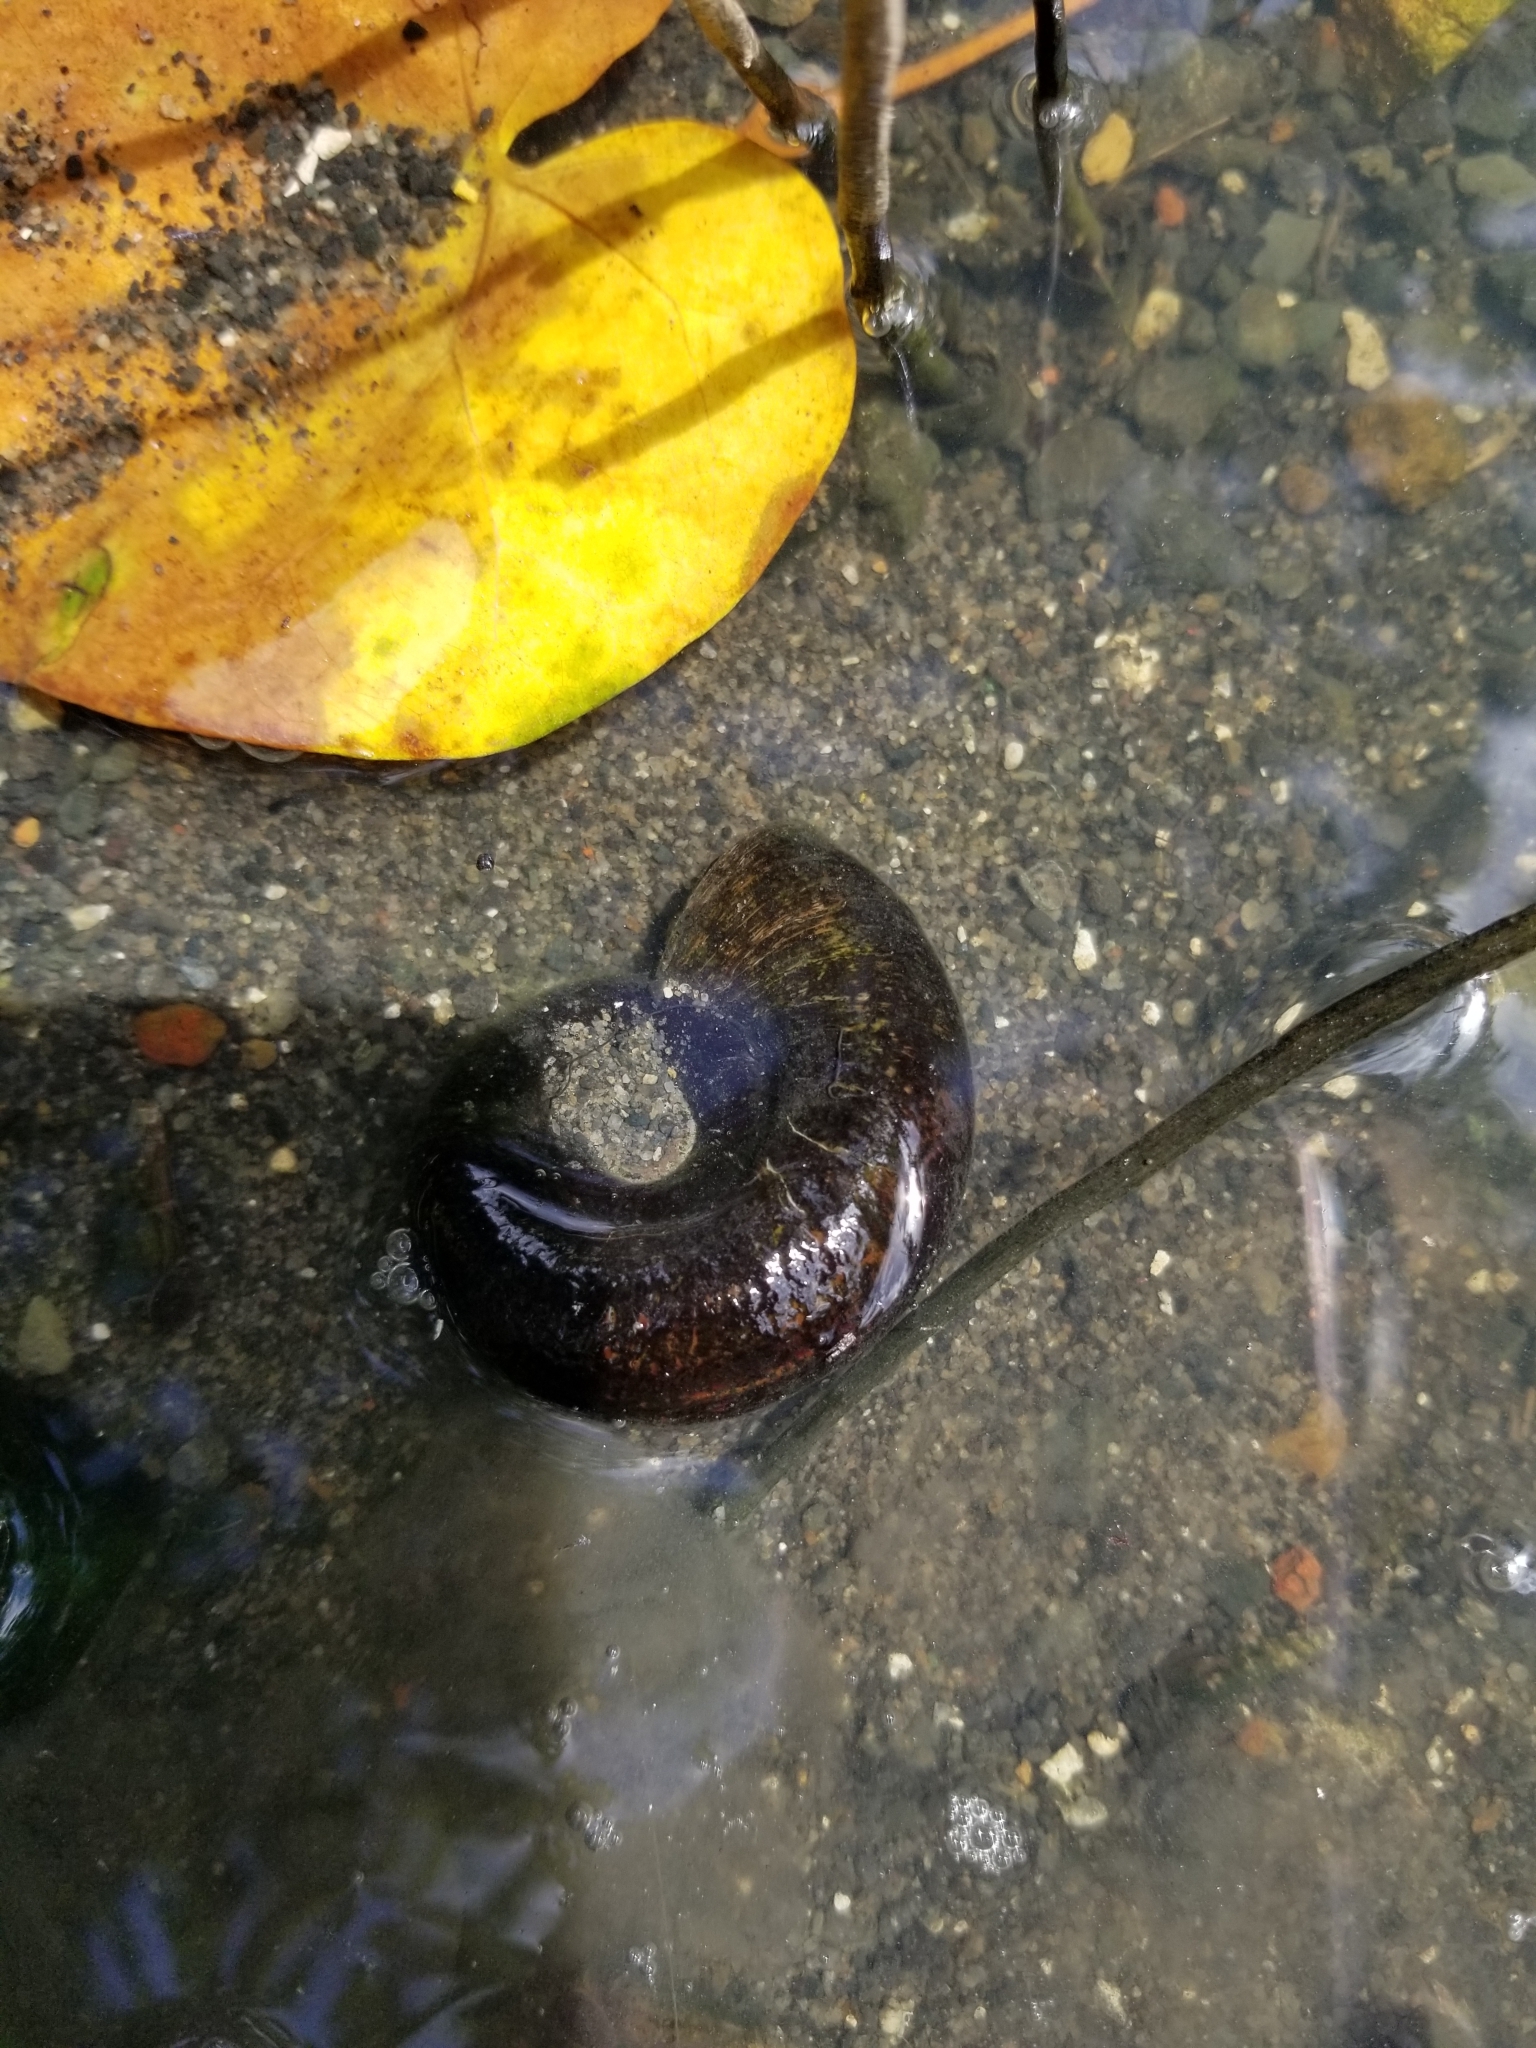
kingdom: Animalia
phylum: Mollusca
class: Gastropoda
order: Architaenioglossa
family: Ampullariidae
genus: Marisa
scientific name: Marisa cornuarietis
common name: Giant ramshorn snail
